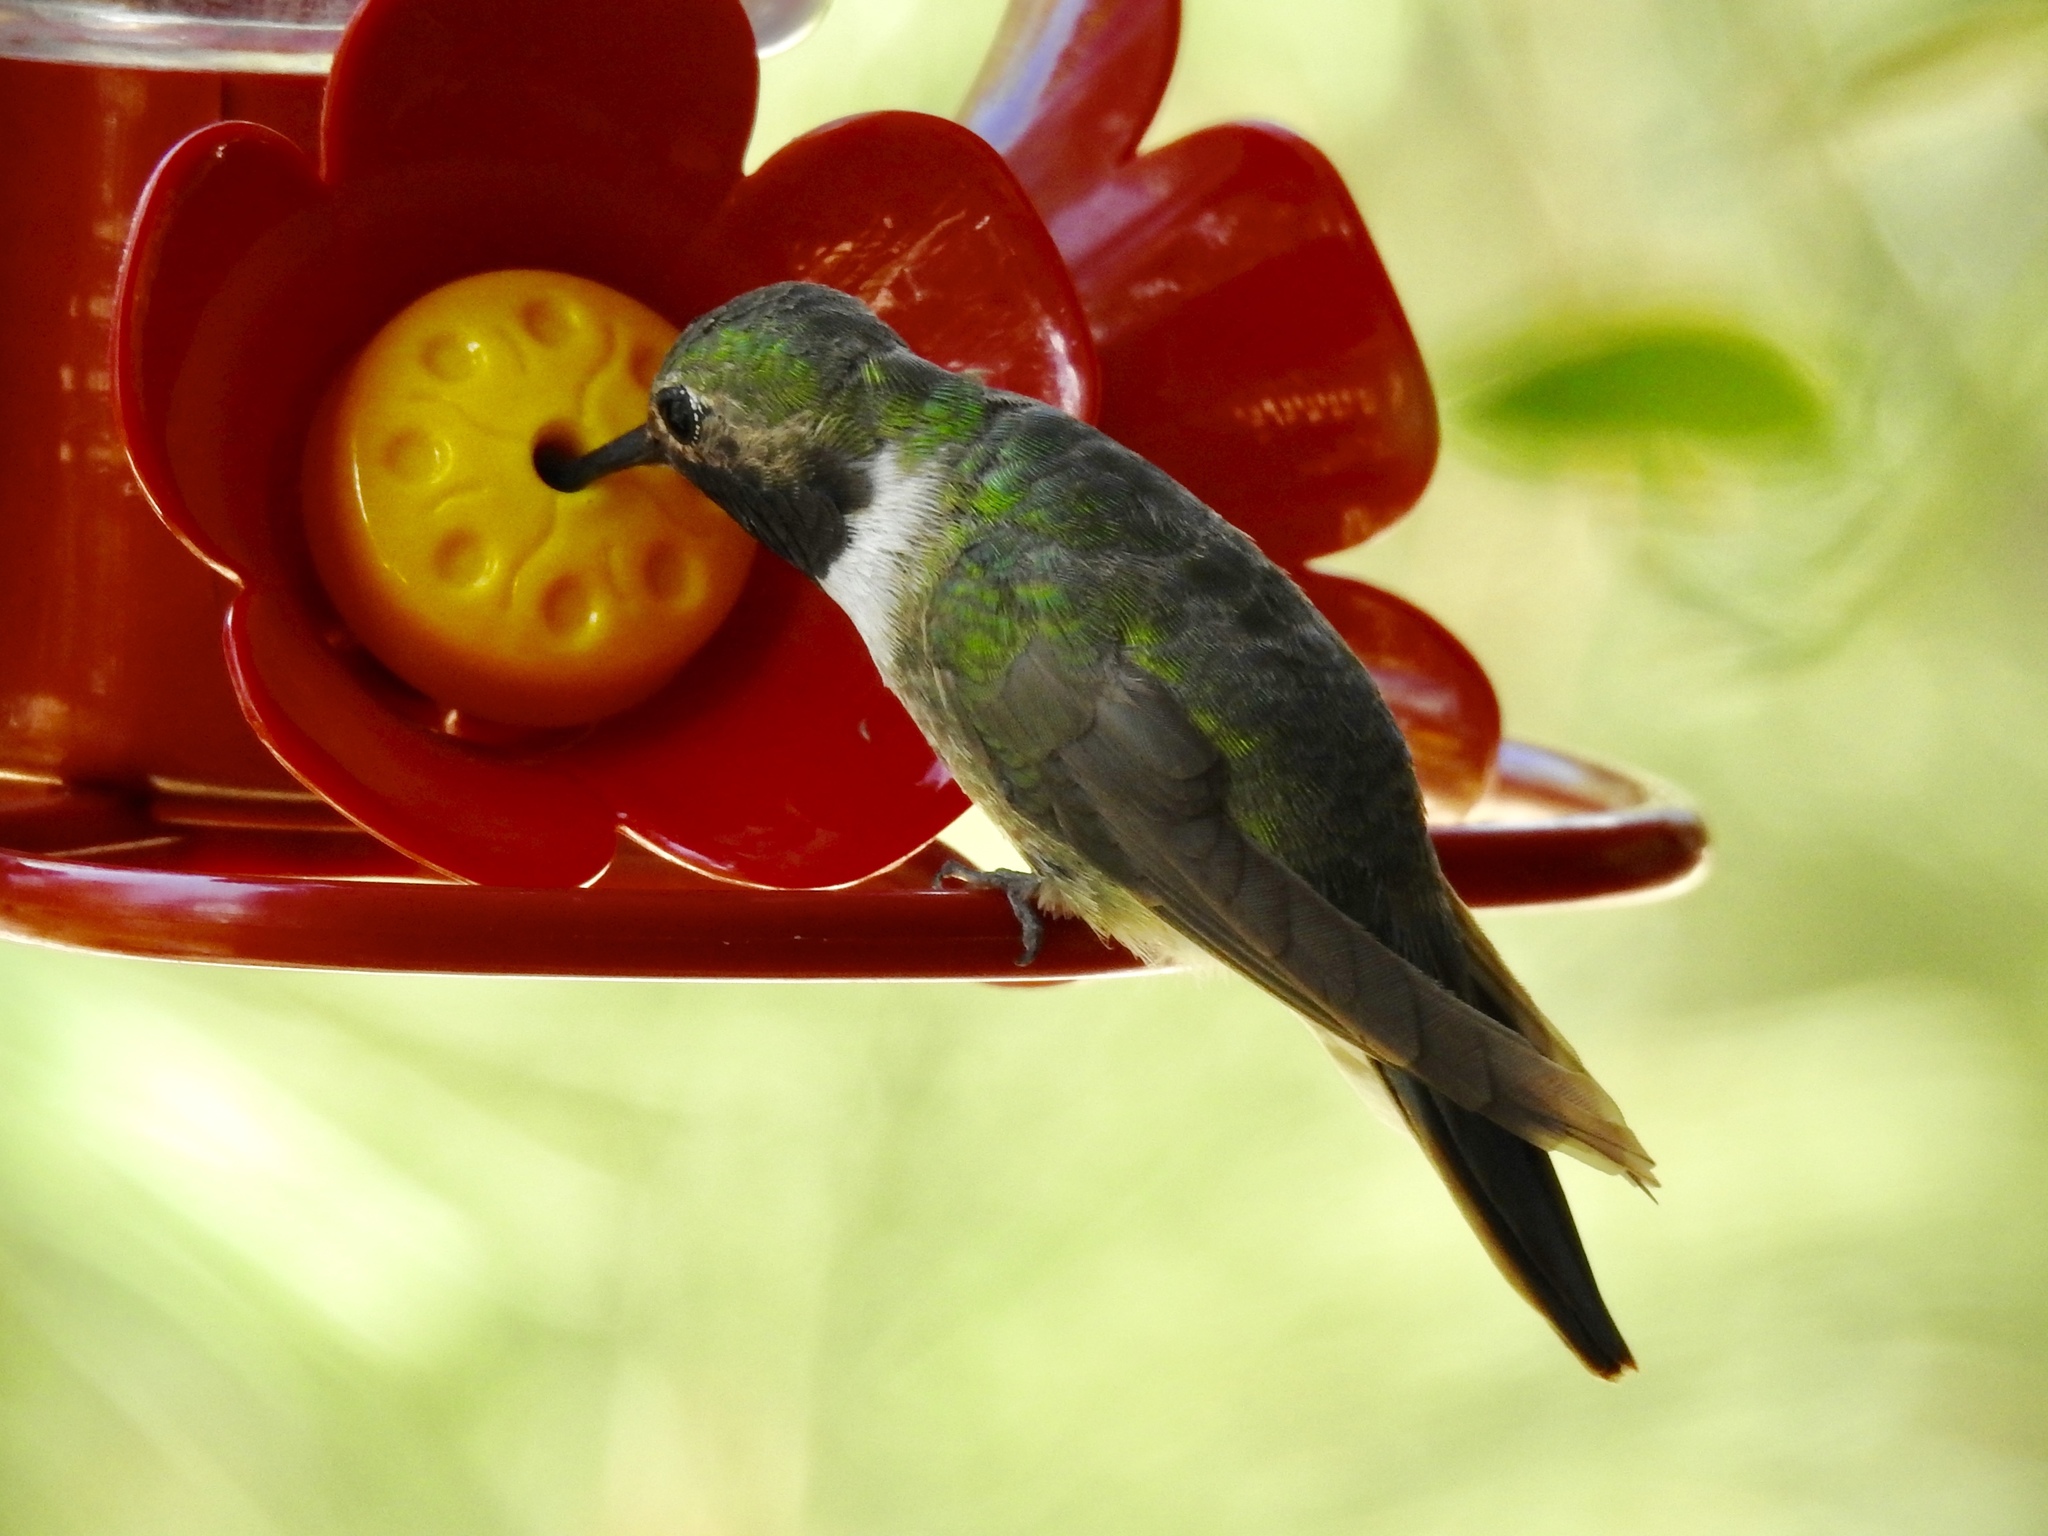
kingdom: Animalia
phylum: Chordata
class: Aves
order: Apodiformes
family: Trochilidae
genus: Selasphorus
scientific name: Selasphorus platycercus
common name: Broad-tailed hummingbird
